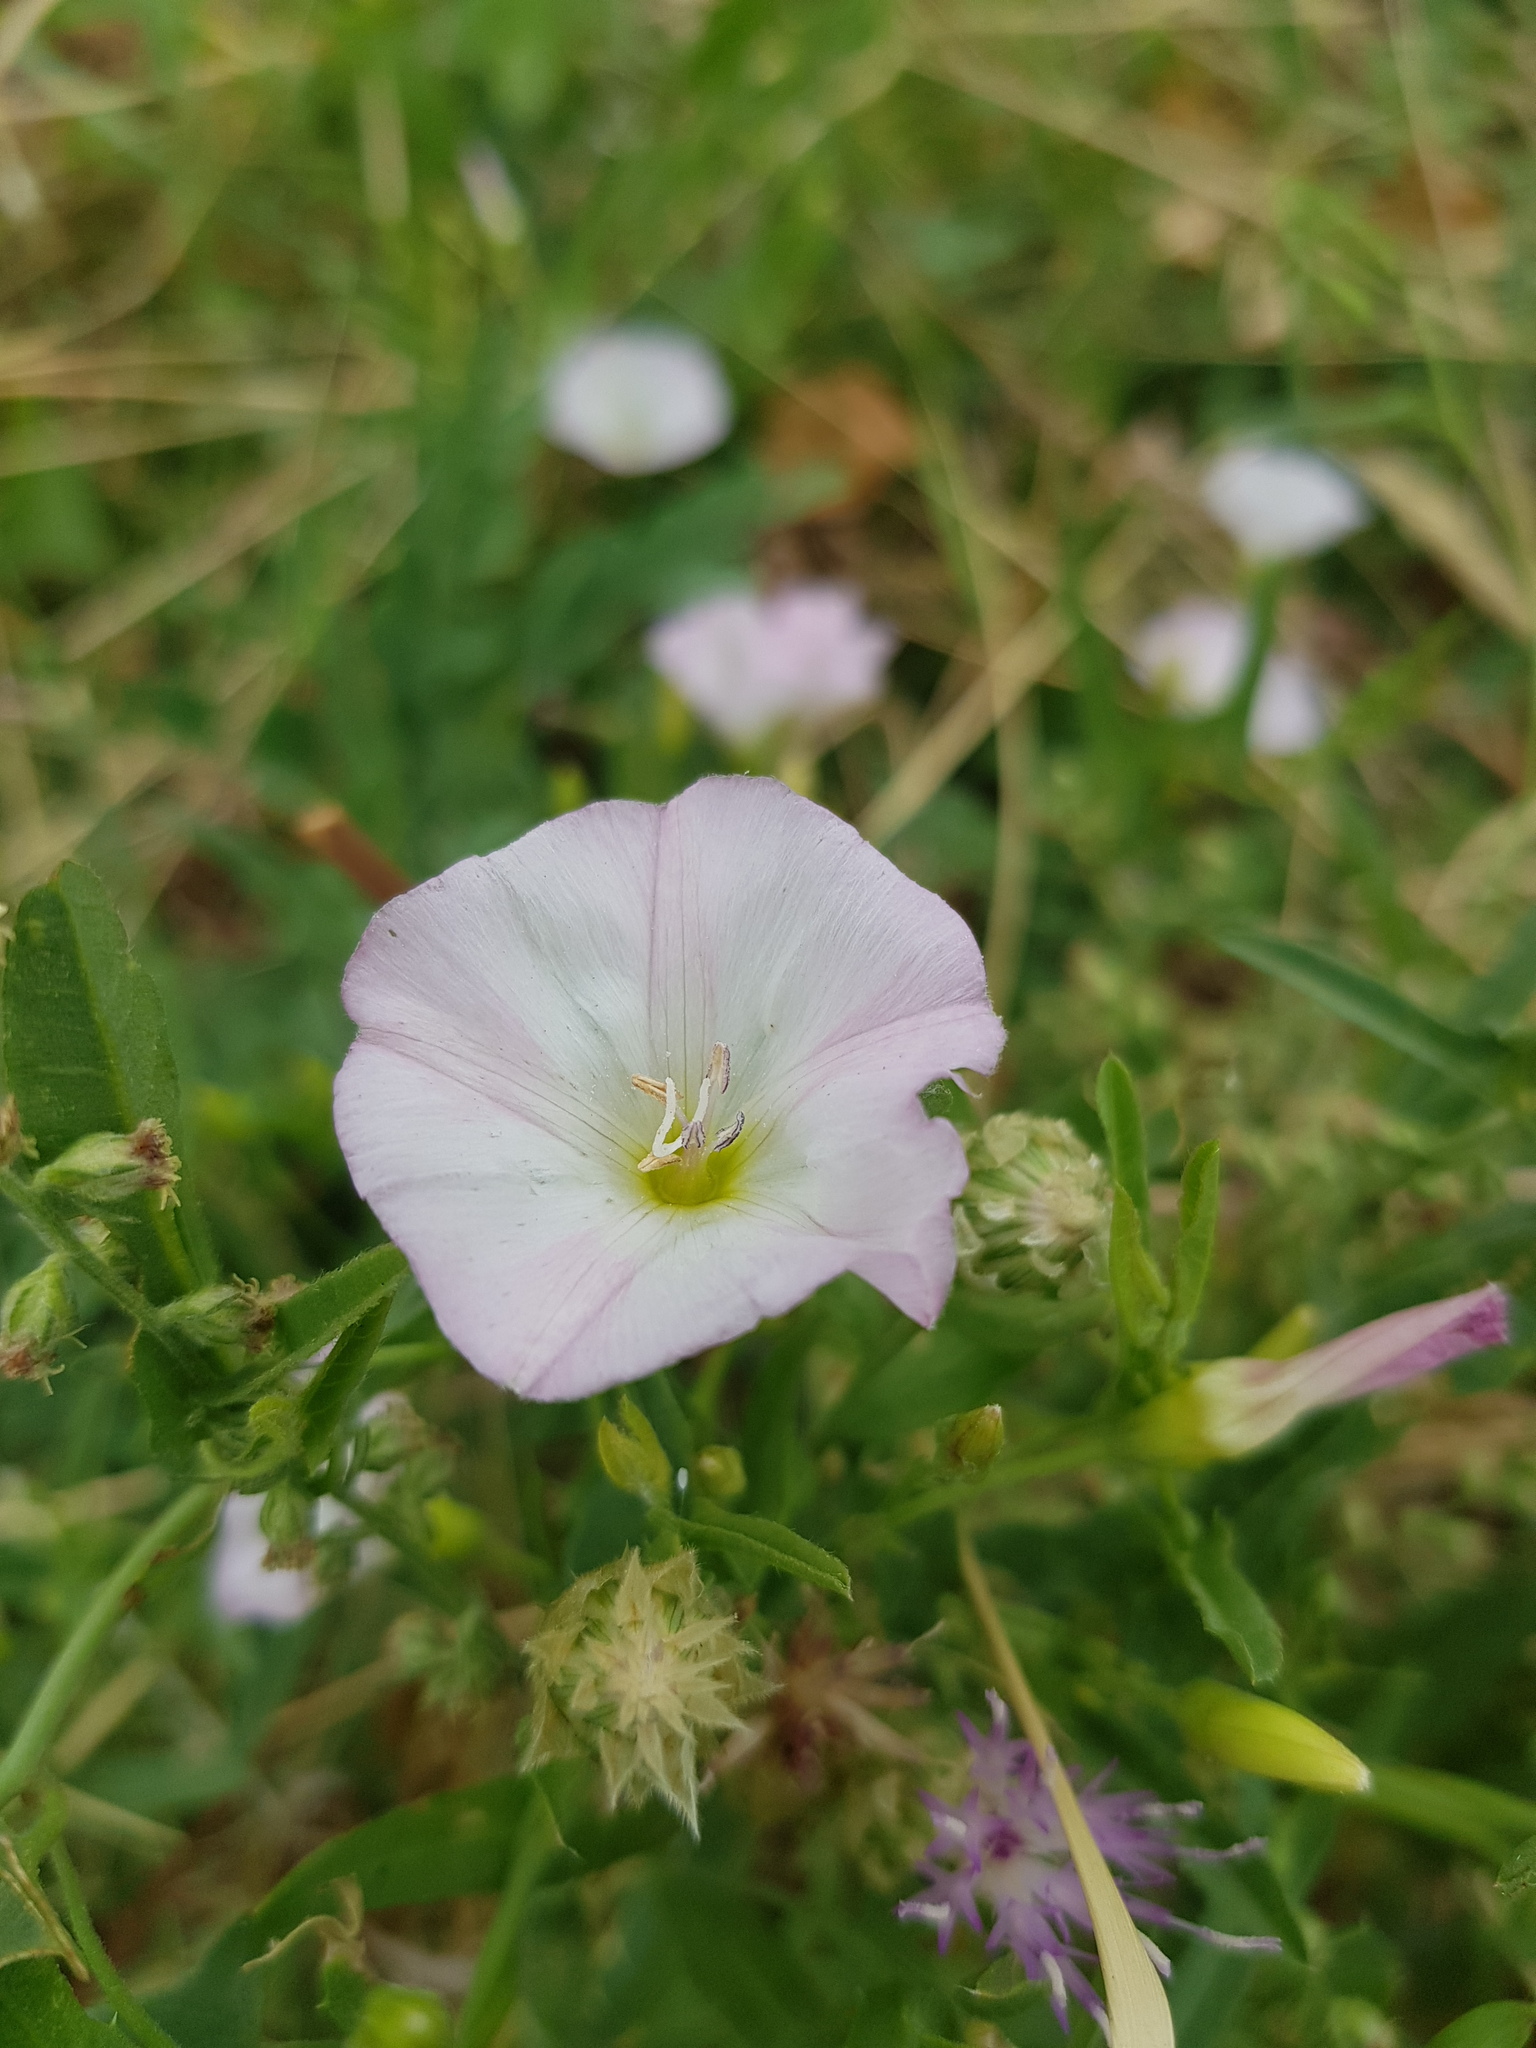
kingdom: Plantae
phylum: Tracheophyta
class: Magnoliopsida
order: Solanales
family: Convolvulaceae
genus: Convolvulus
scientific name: Convolvulus arvensis
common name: Field bindweed
